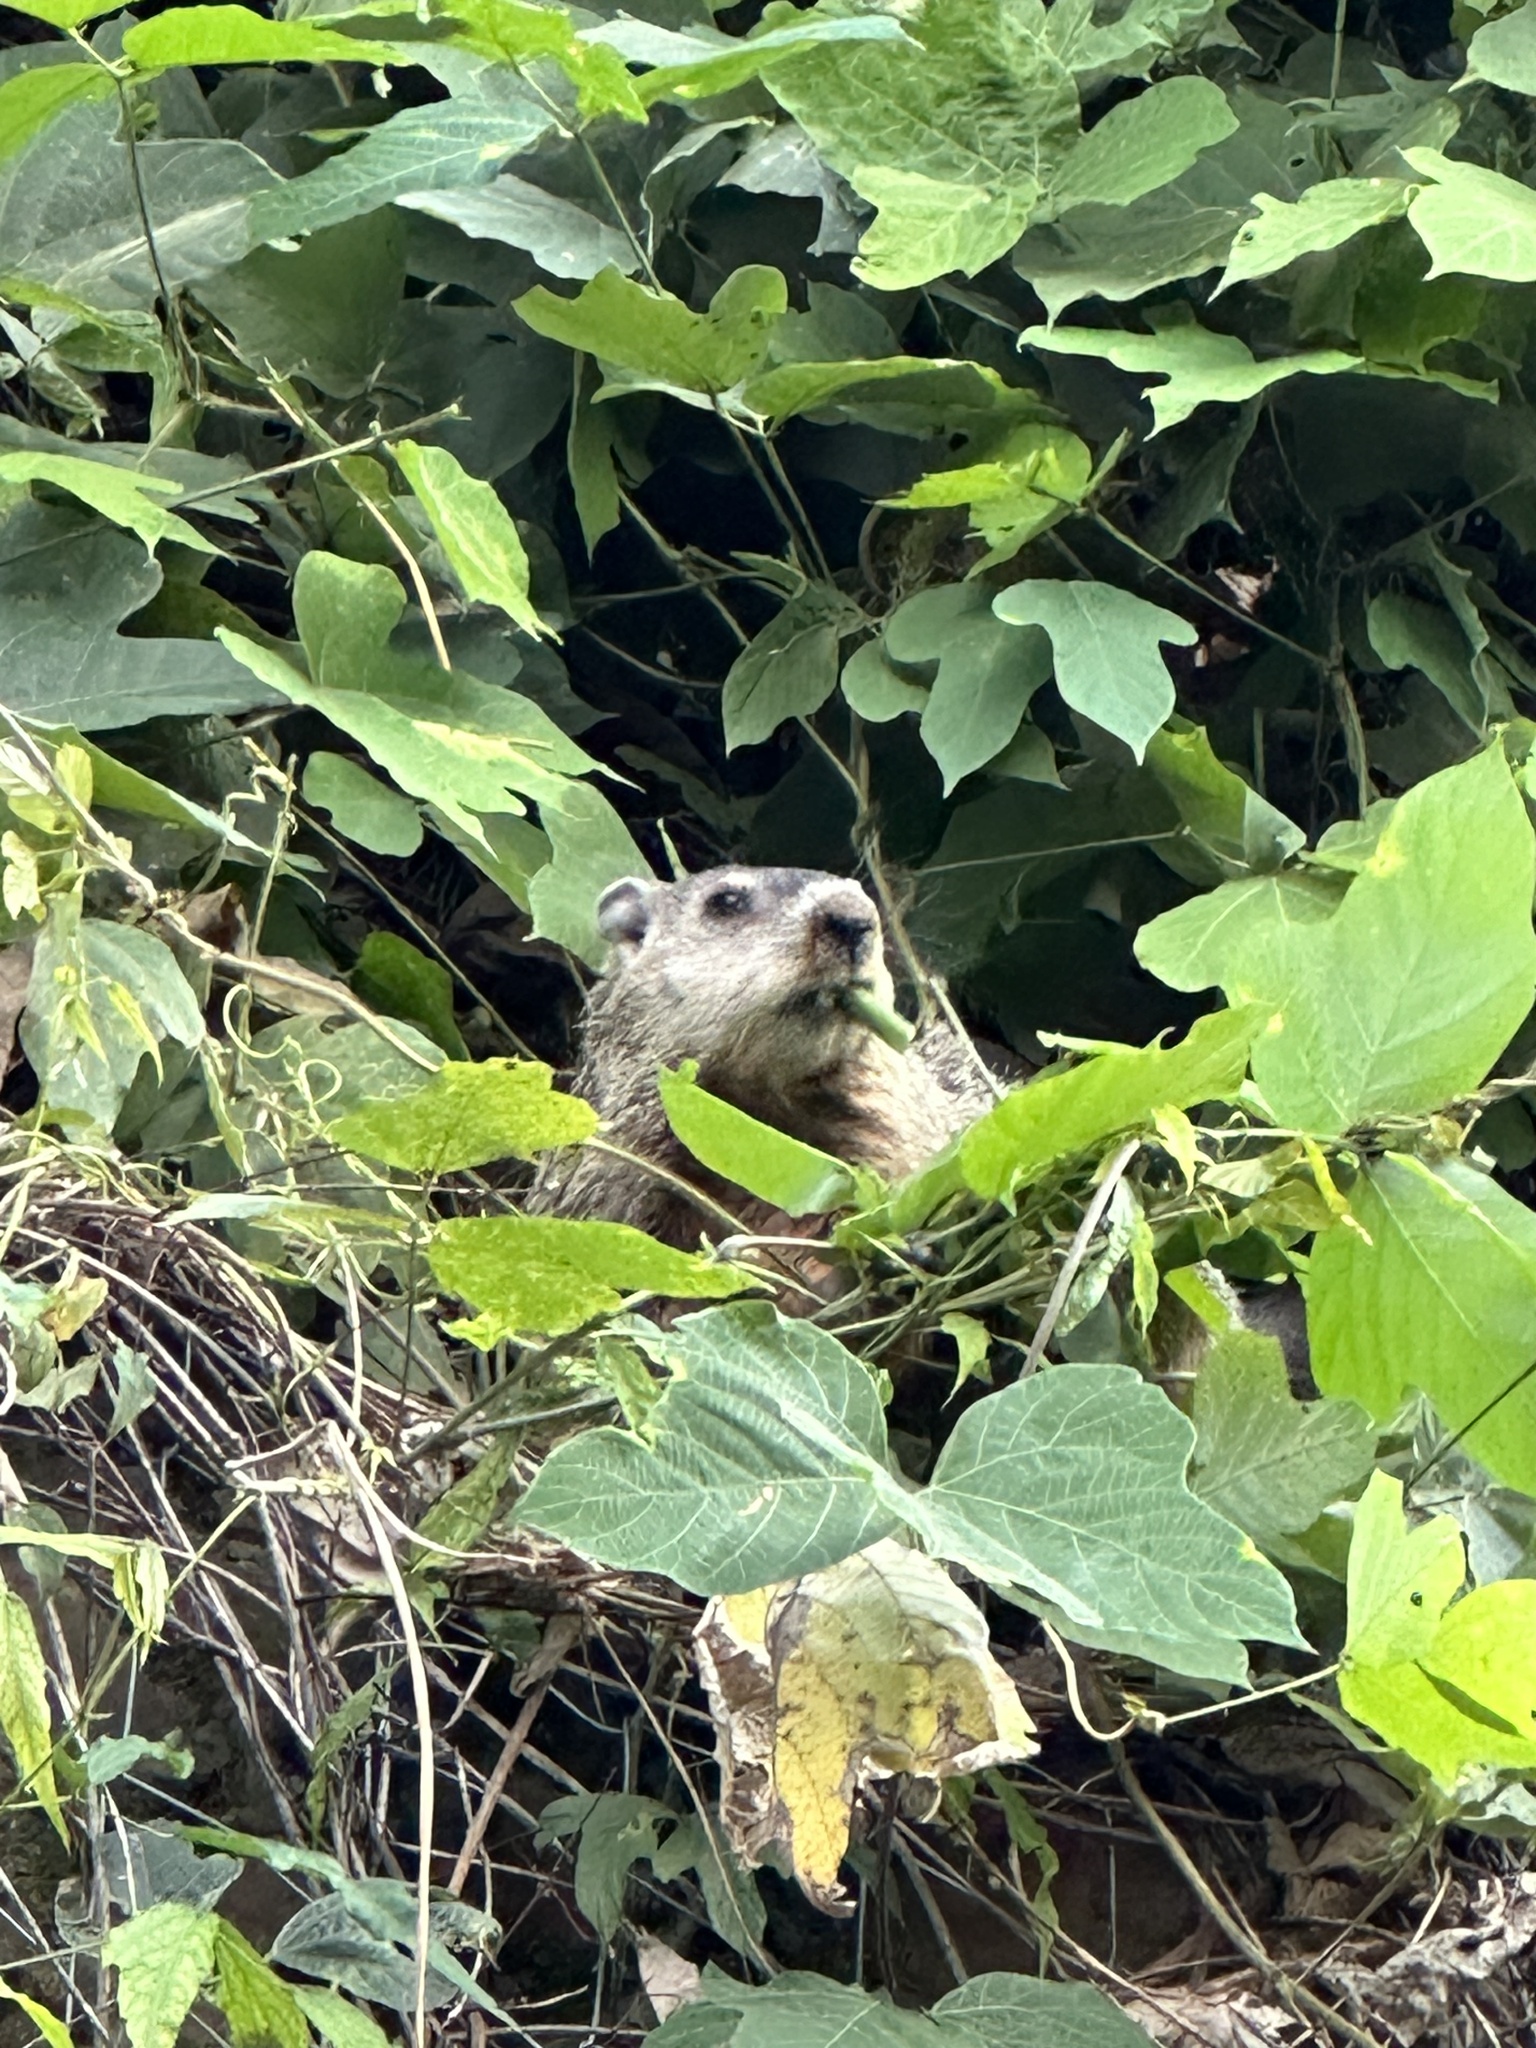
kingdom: Animalia
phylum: Chordata
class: Mammalia
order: Rodentia
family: Sciuridae
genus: Marmota
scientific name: Marmota monax
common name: Groundhog
